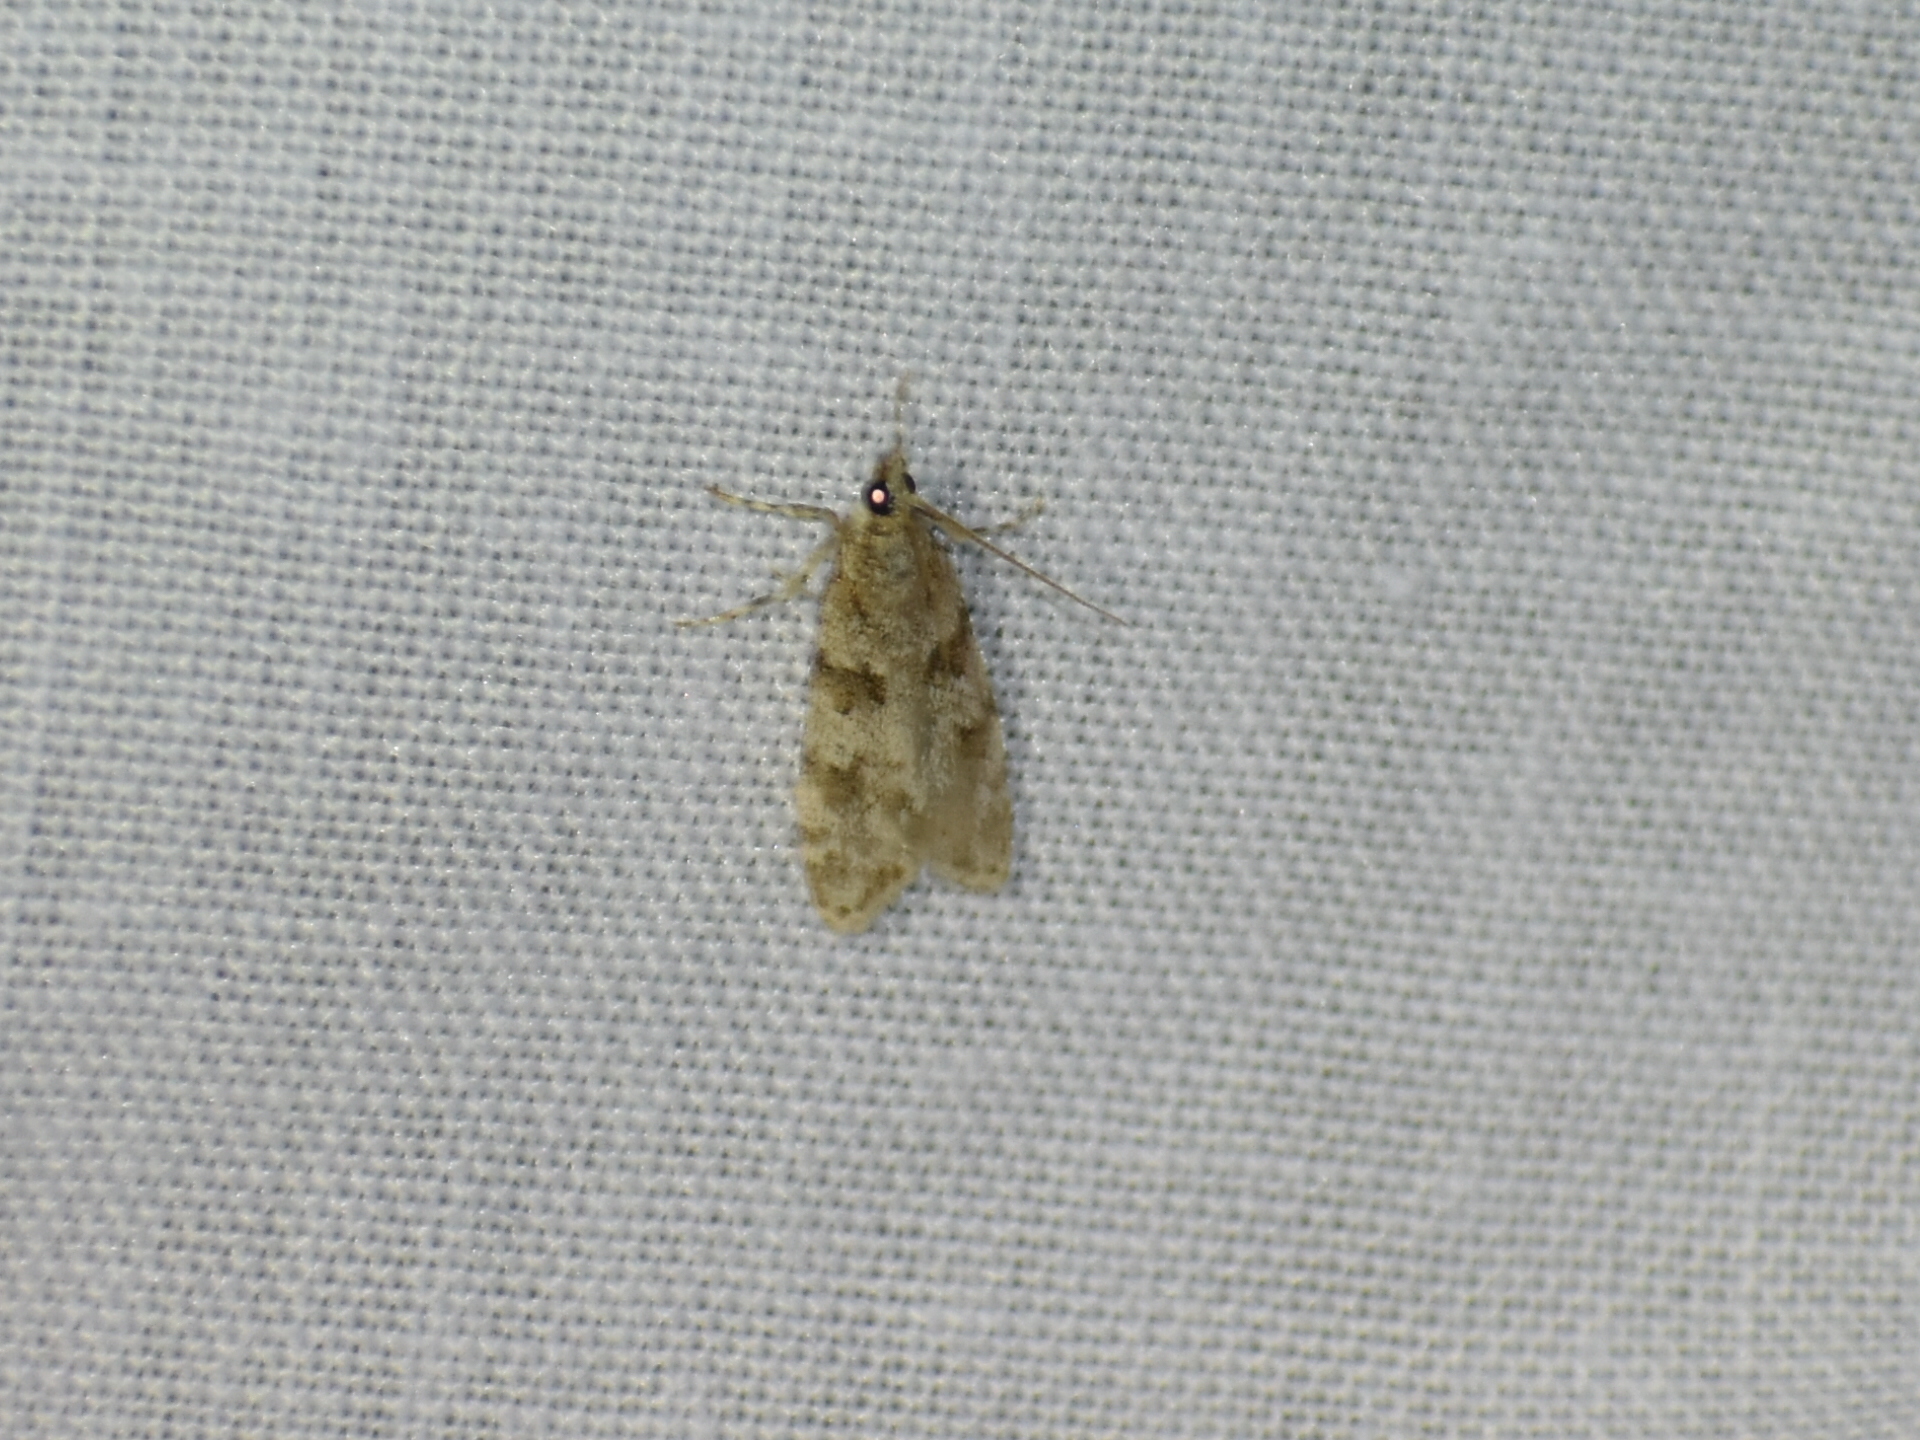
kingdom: Animalia
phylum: Arthropoda
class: Insecta
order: Lepidoptera
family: Crambidae
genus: Scoparia
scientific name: Scoparia biplagialis
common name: Double-striped scoparia moth
